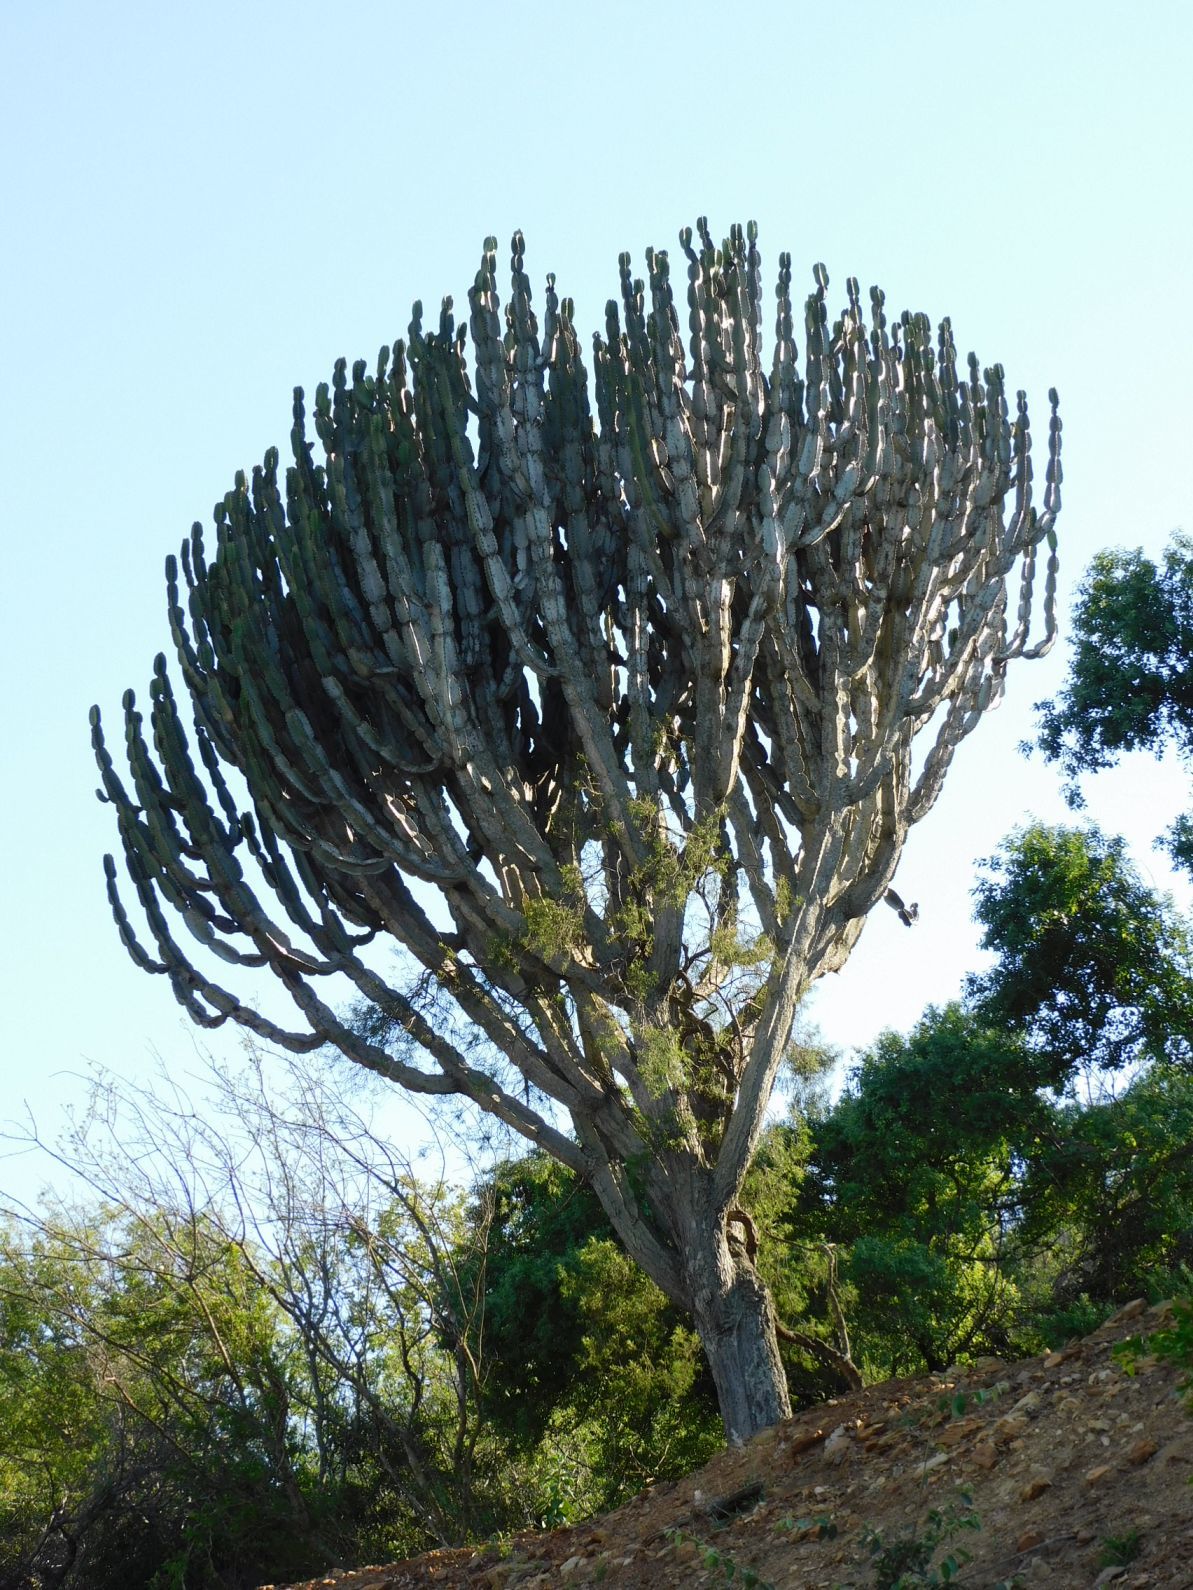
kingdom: Plantae
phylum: Tracheophyta
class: Magnoliopsida
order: Malpighiales
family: Euphorbiaceae
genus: Euphorbia
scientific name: Euphorbia ingens
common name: Cactus spurge
